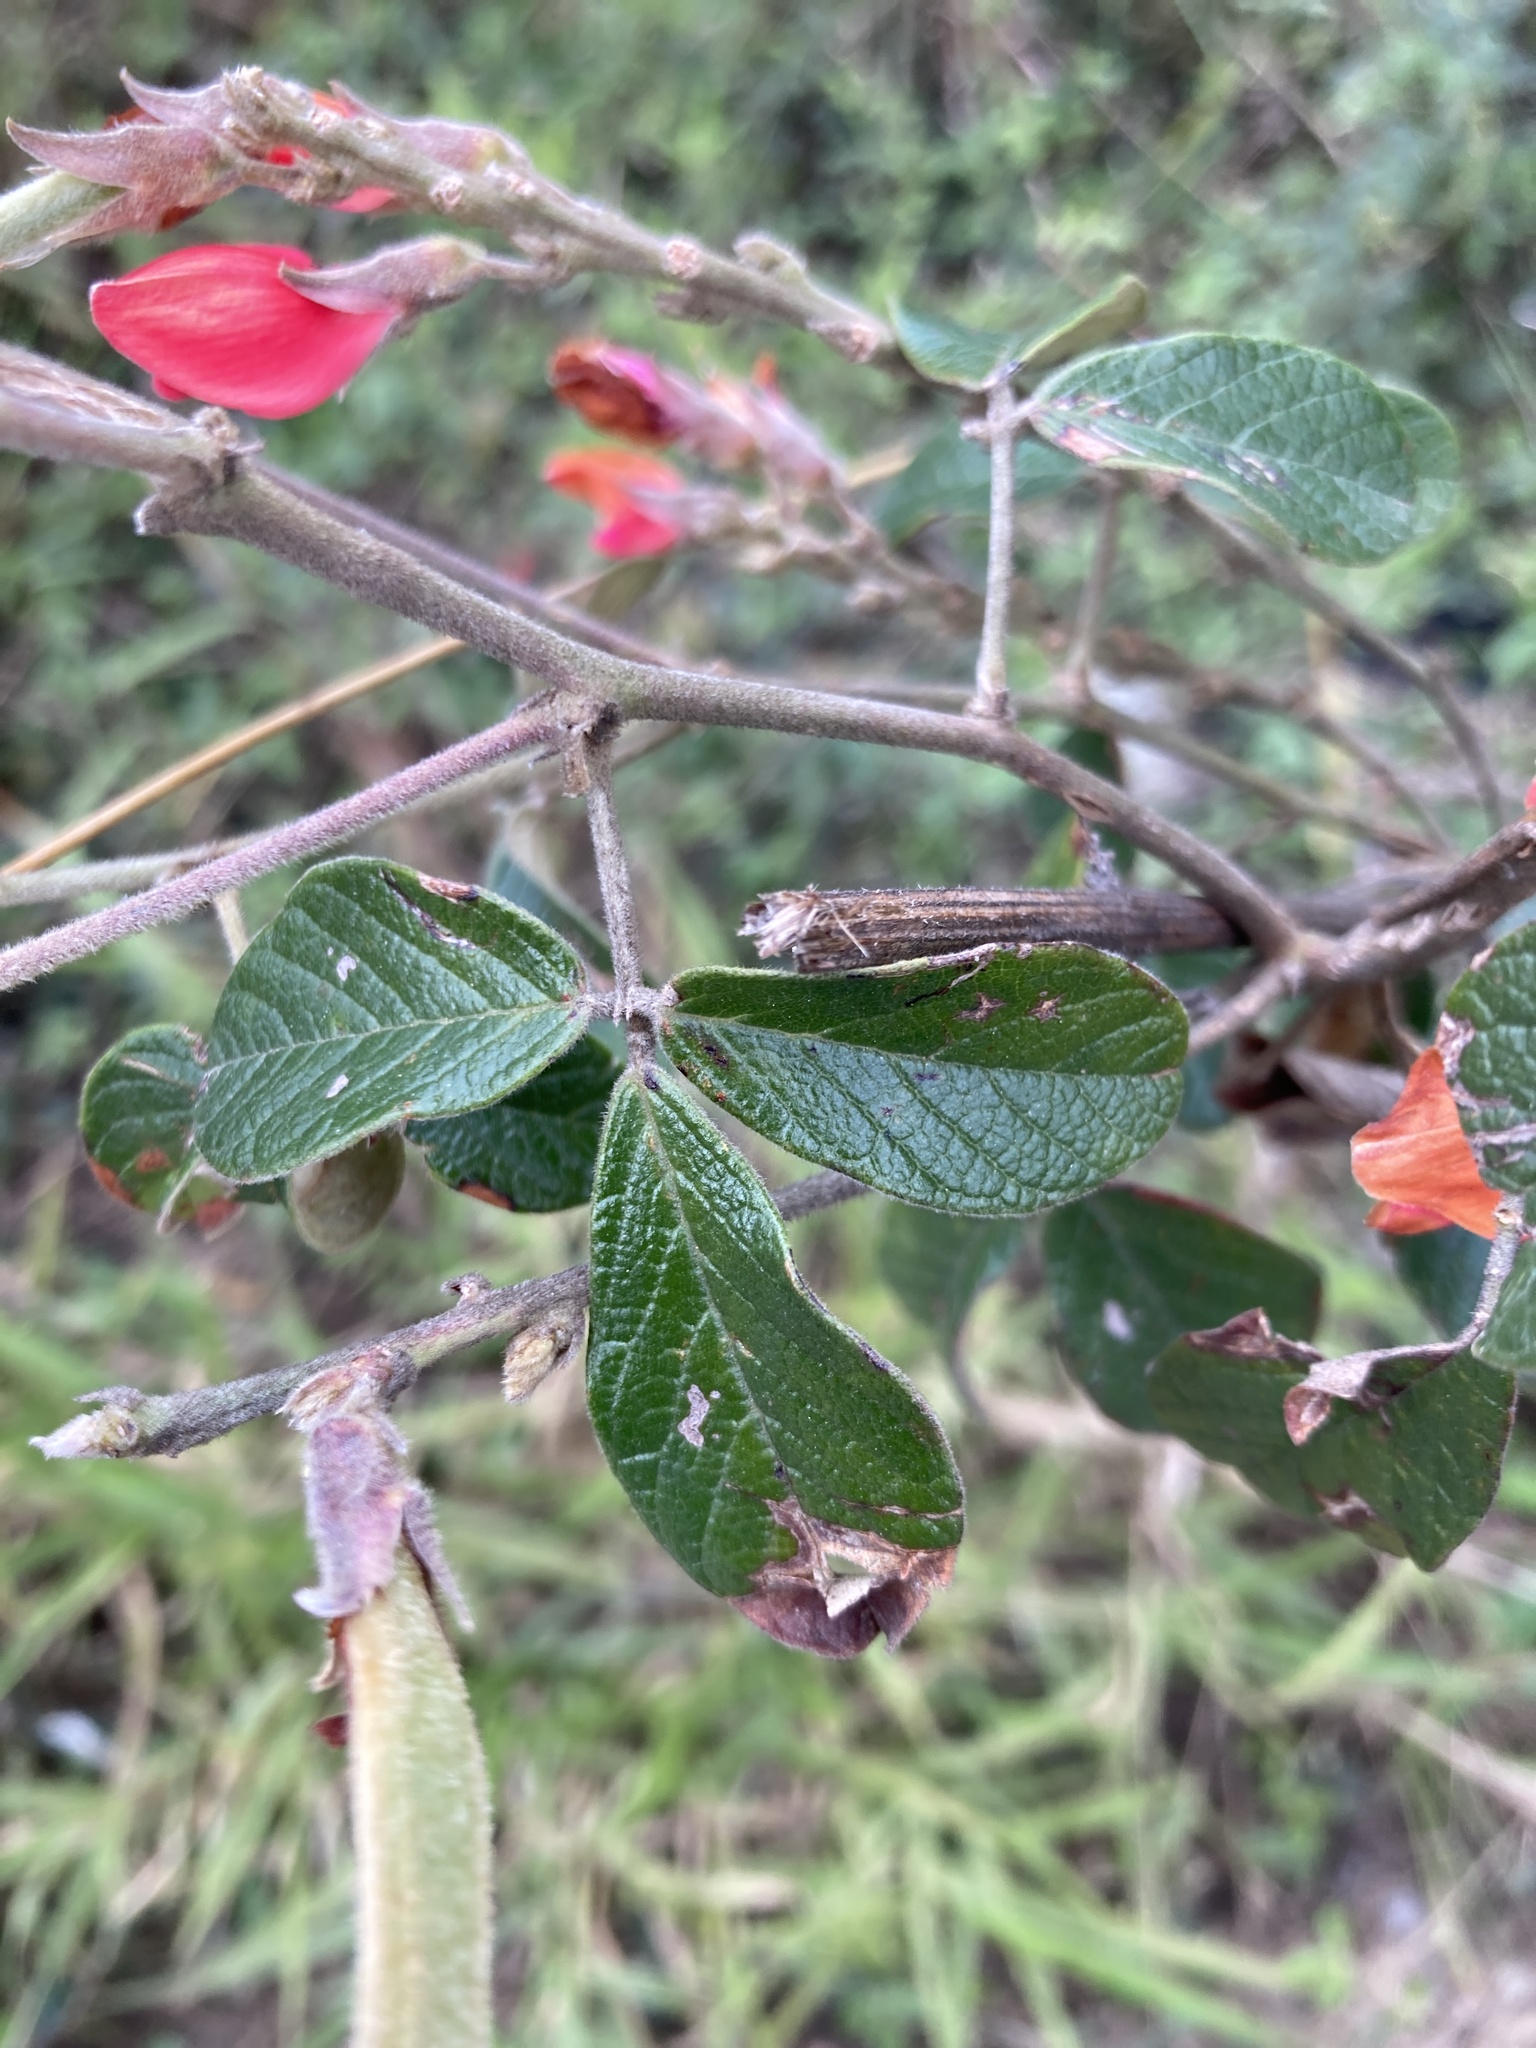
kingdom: Plantae
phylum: Tracheophyta
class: Magnoliopsida
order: Fabales
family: Fabaceae
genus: Galactia
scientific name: Galactia lindenii
